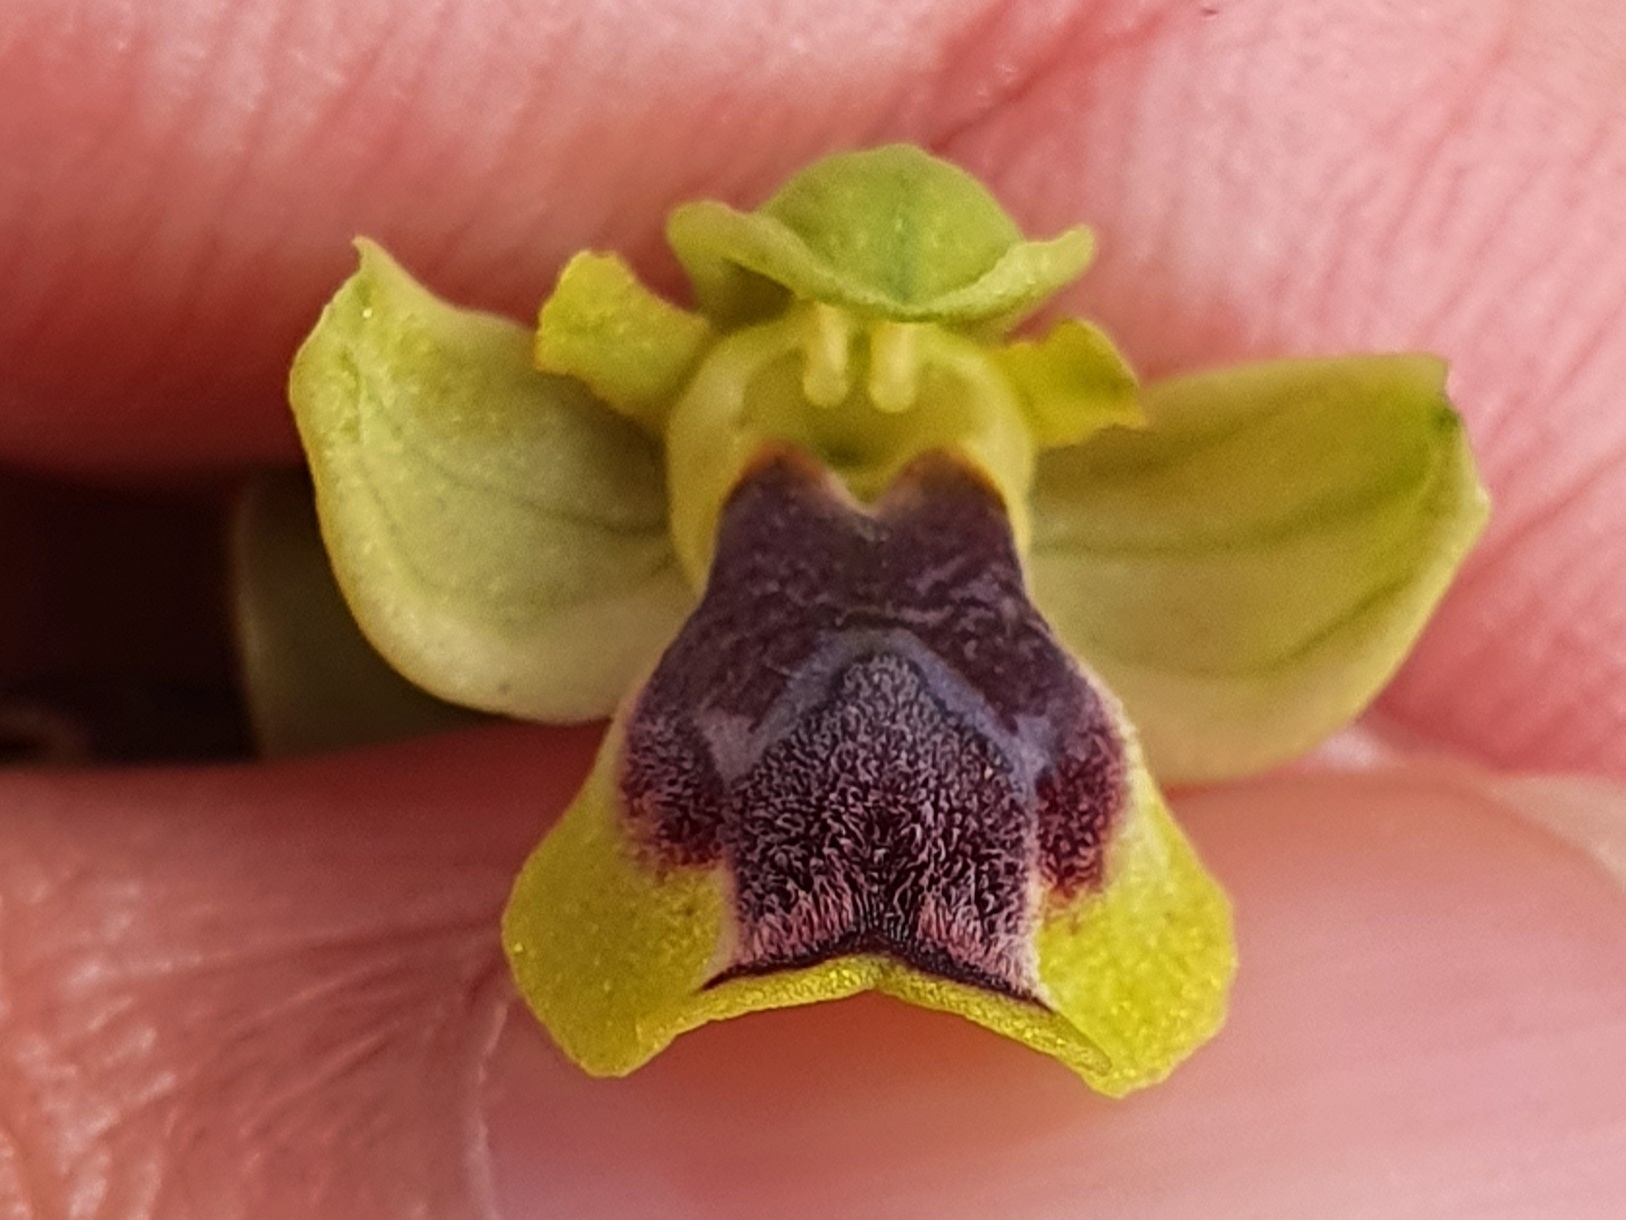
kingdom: Plantae
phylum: Tracheophyta
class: Liliopsida
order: Asparagales
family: Orchidaceae
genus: Ophrys
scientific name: Ophrys battandieri
